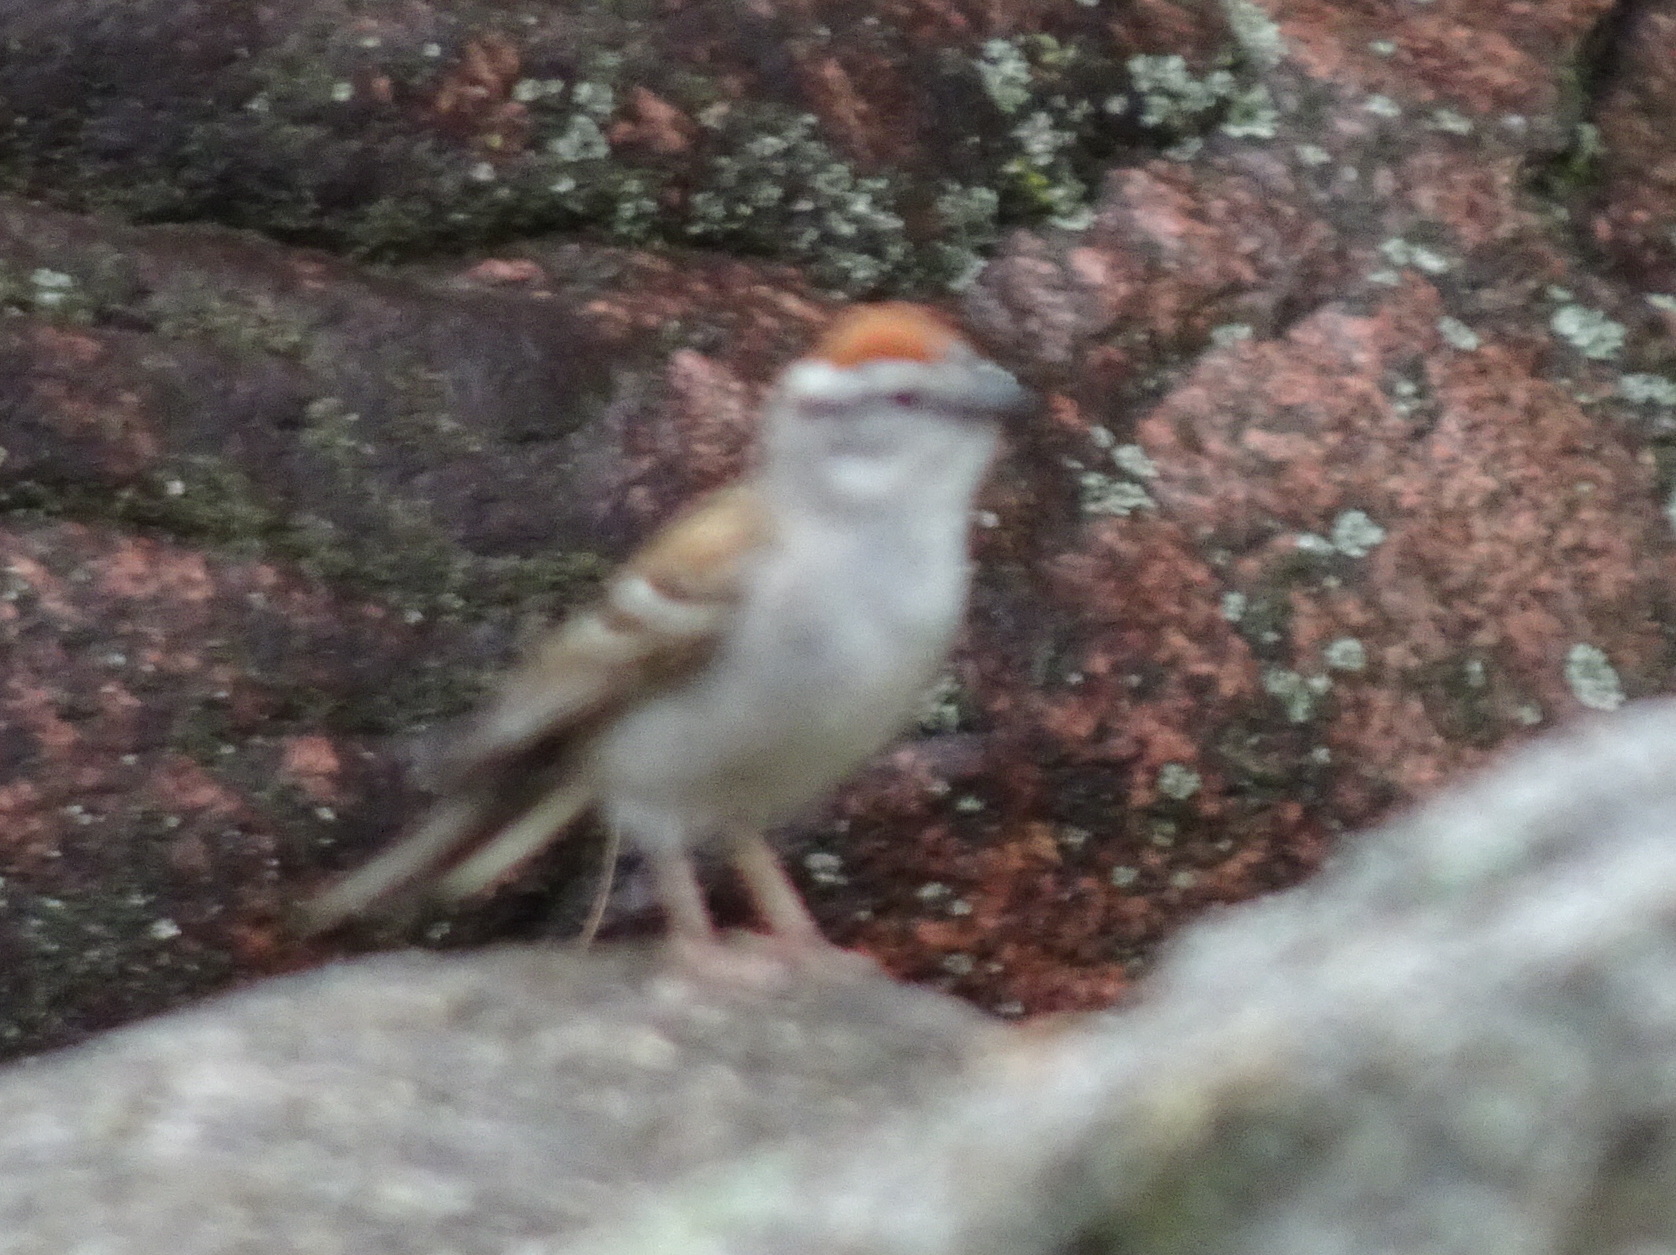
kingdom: Animalia
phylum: Chordata
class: Aves
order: Passeriformes
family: Passerellidae
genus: Spizella
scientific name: Spizella passerina
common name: Chipping sparrow
